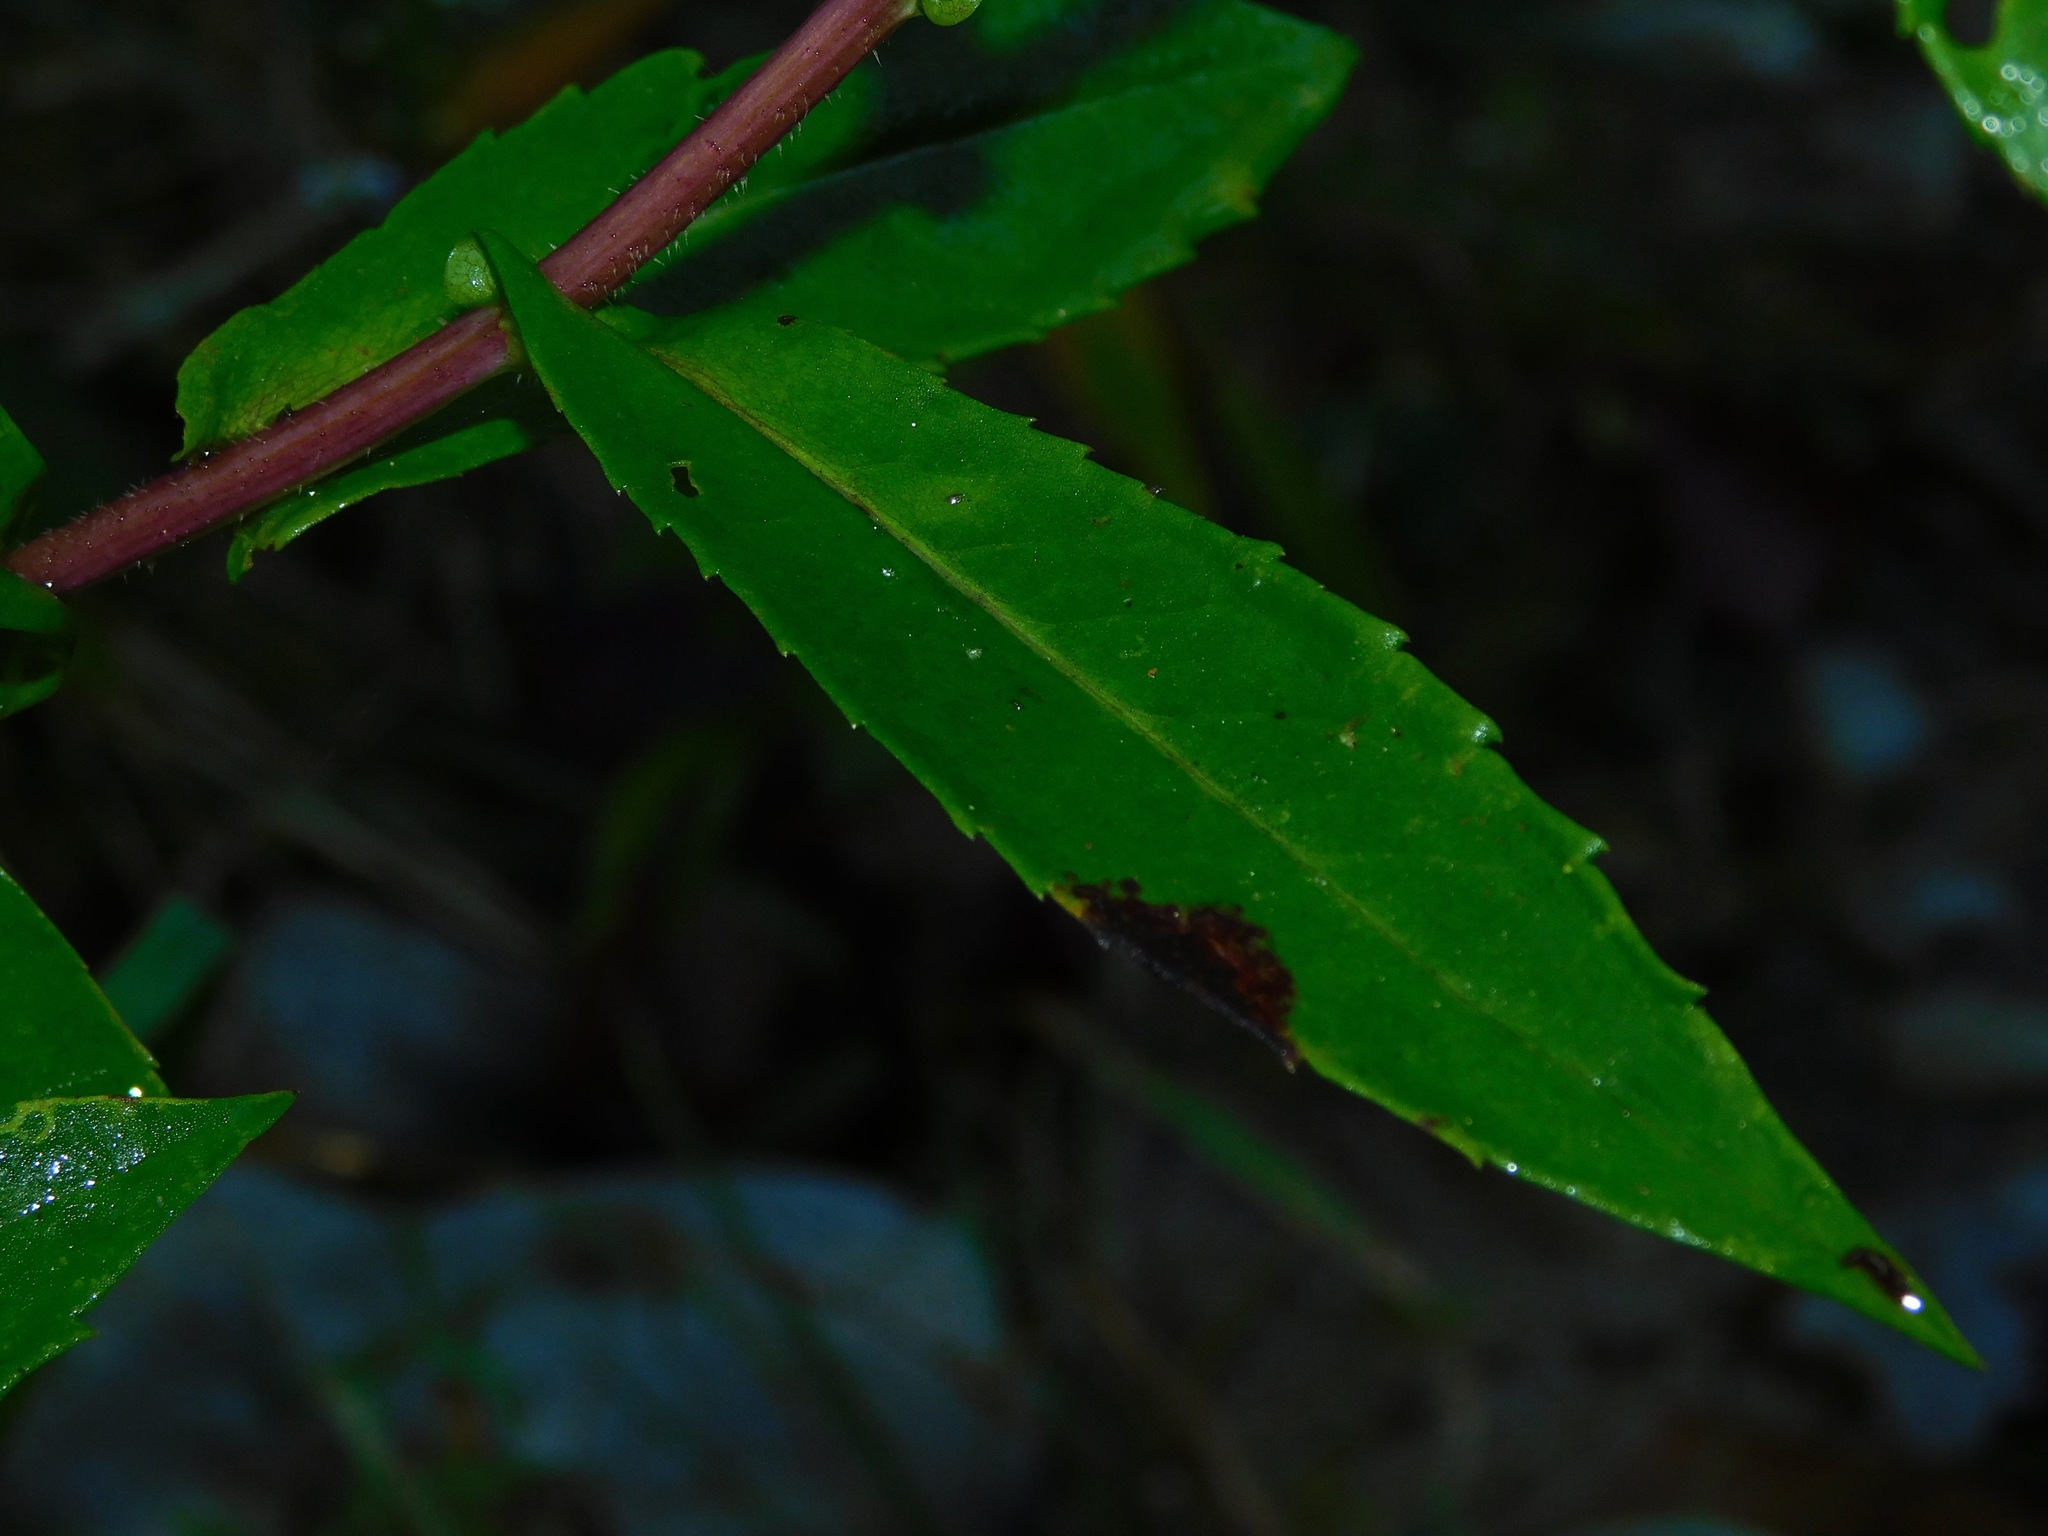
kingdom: Plantae
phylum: Tracheophyta
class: Magnoliopsida
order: Asterales
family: Asteraceae
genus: Symphyotrichum
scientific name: Symphyotrichum puniceum
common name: Bog aster
